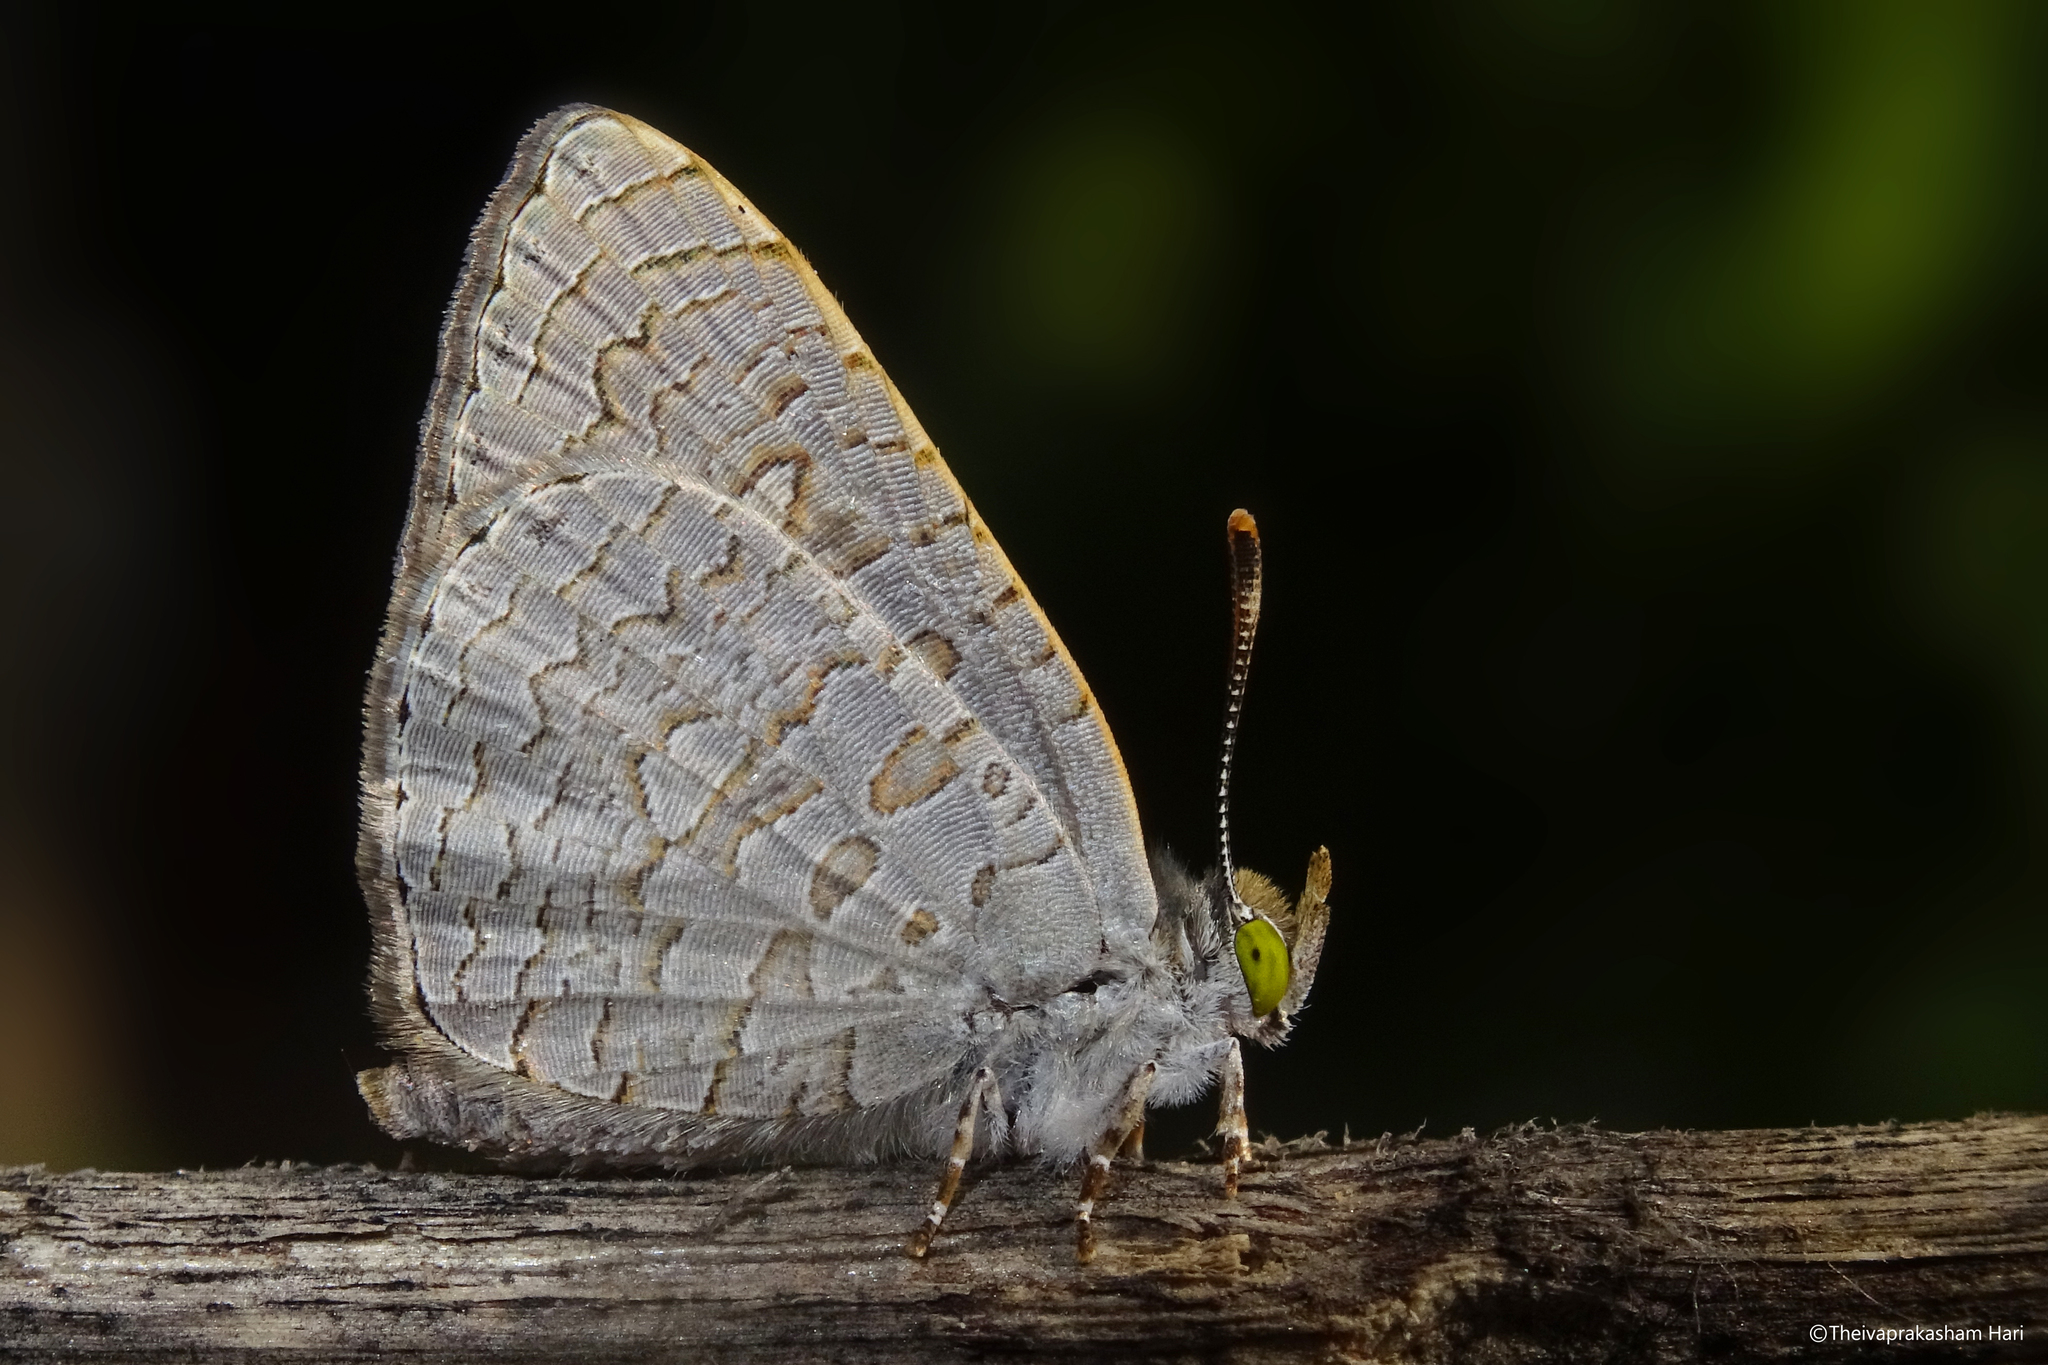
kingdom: Animalia
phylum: Arthropoda
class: Insecta
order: Lepidoptera
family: Lycaenidae
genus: Spalgis
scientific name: Spalgis epius
